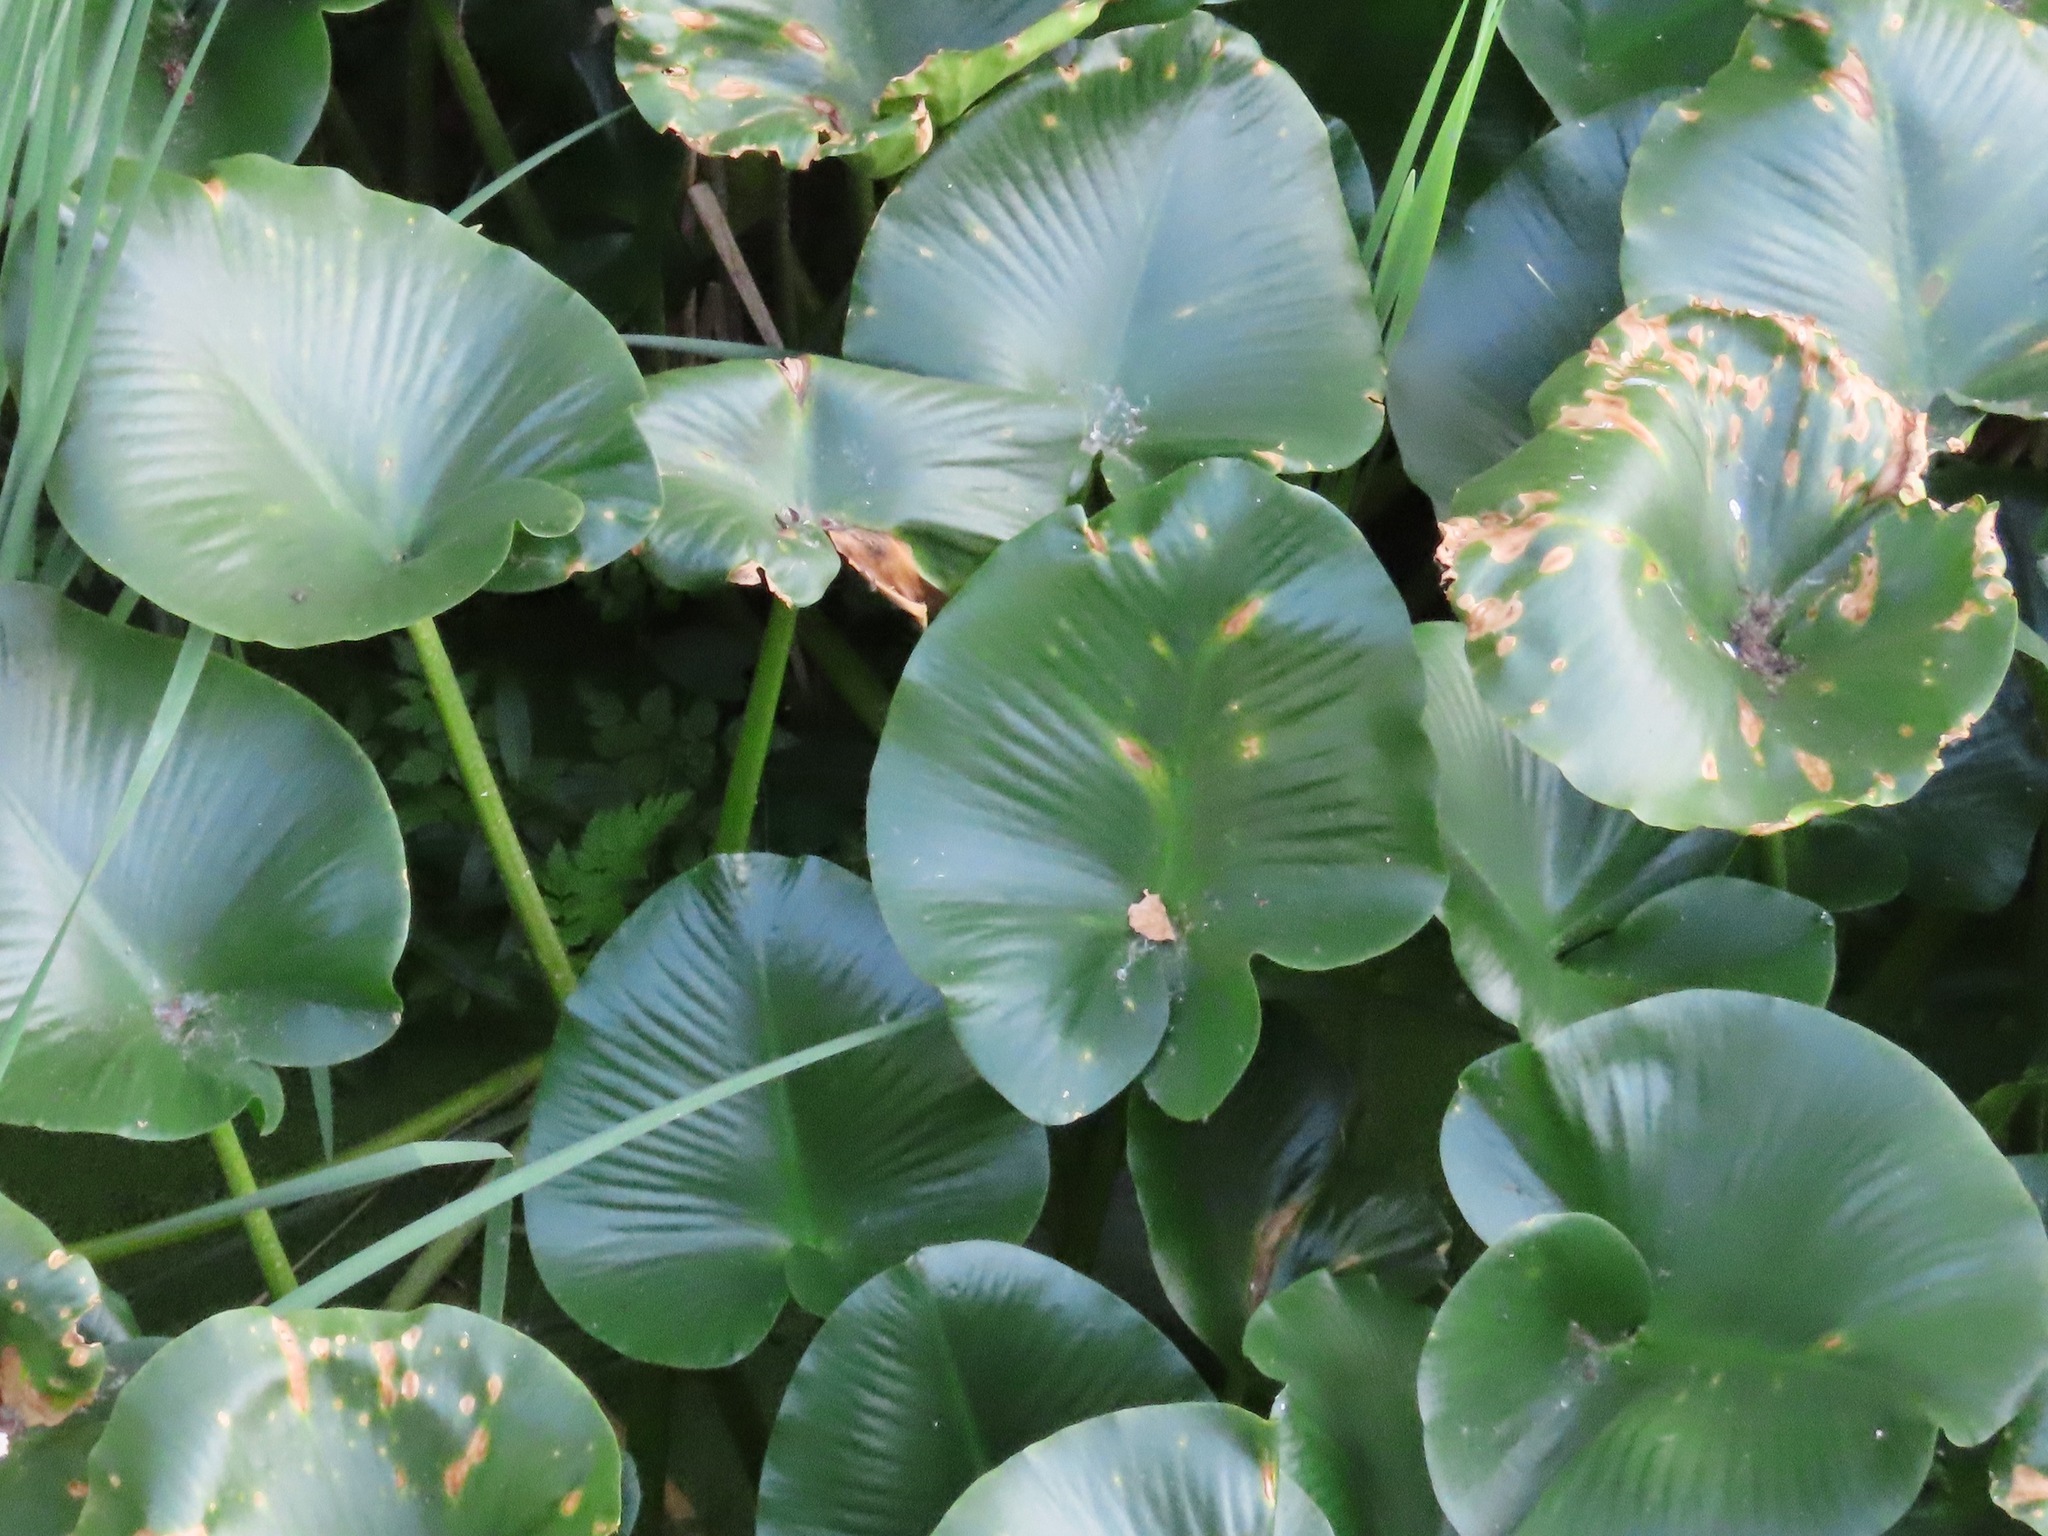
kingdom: Plantae
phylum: Tracheophyta
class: Magnoliopsida
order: Nymphaeales
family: Nymphaeaceae
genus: Nuphar
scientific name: Nuphar polysepala
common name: Rocky mountain cow-lily
